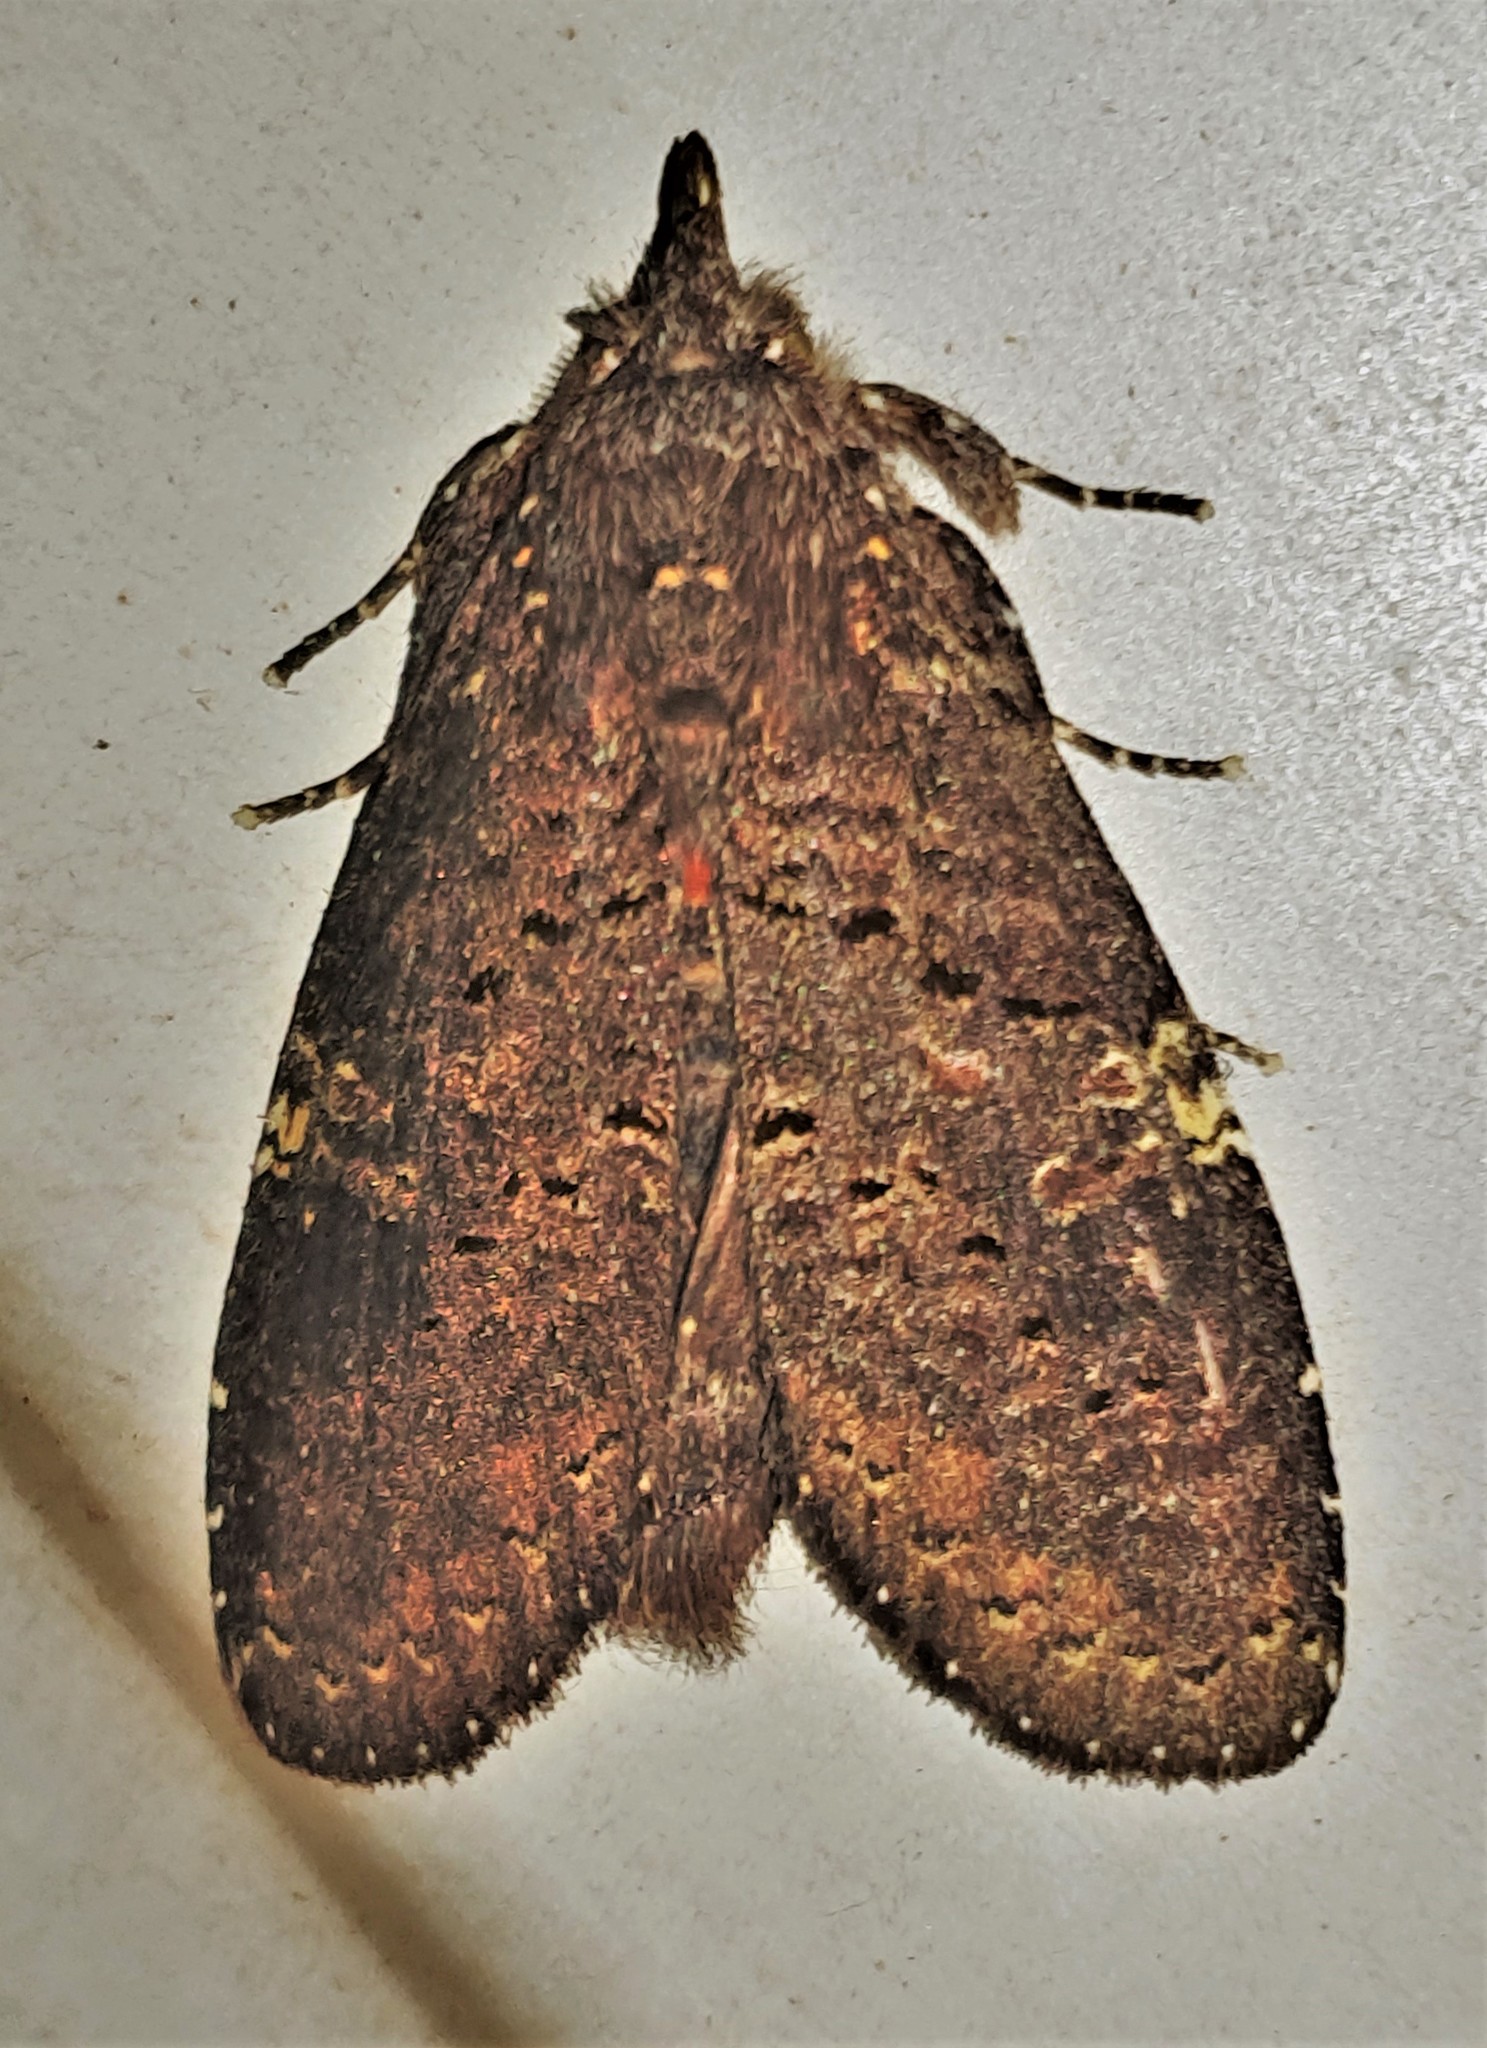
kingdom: Animalia
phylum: Arthropoda
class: Insecta
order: Lepidoptera
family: Notodontidae
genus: Lusura
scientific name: Lusura plorabilis
